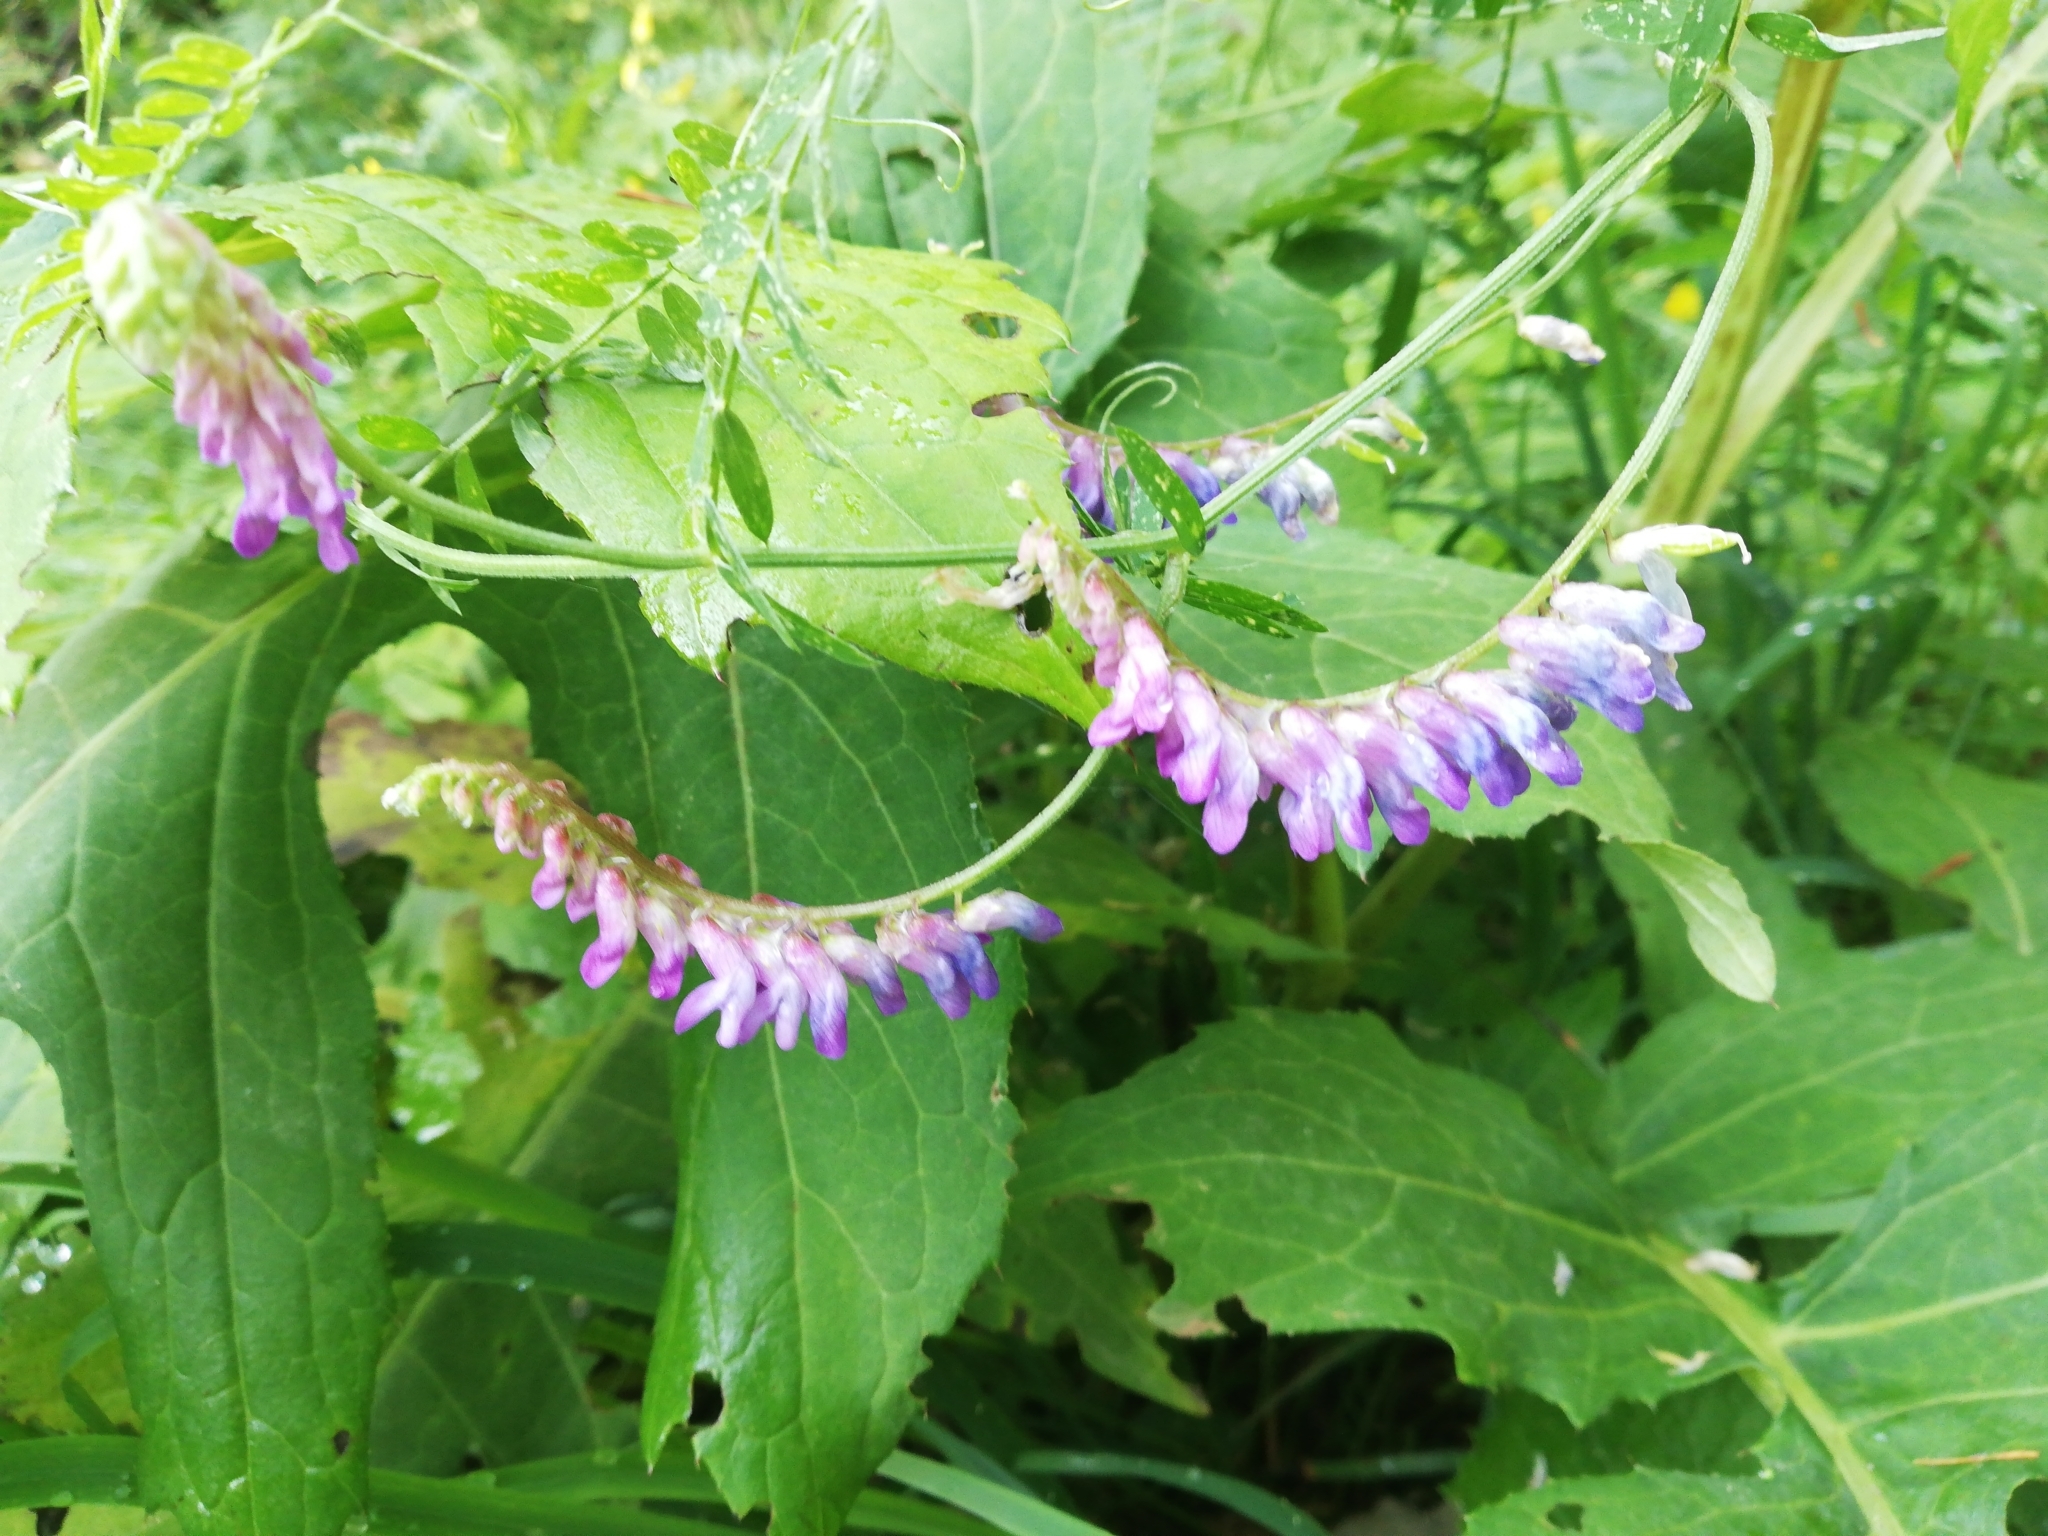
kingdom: Plantae
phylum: Tracheophyta
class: Magnoliopsida
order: Fabales
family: Fabaceae
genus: Vicia
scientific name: Vicia cracca
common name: Bird vetch
